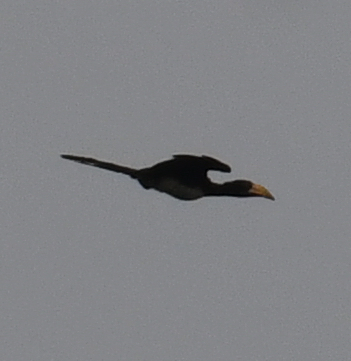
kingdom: Animalia
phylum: Chordata
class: Aves
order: Bucerotiformes
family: Bucerotidae
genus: Lophoceros
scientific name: Lophoceros fasciatus
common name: African pied hornbill
